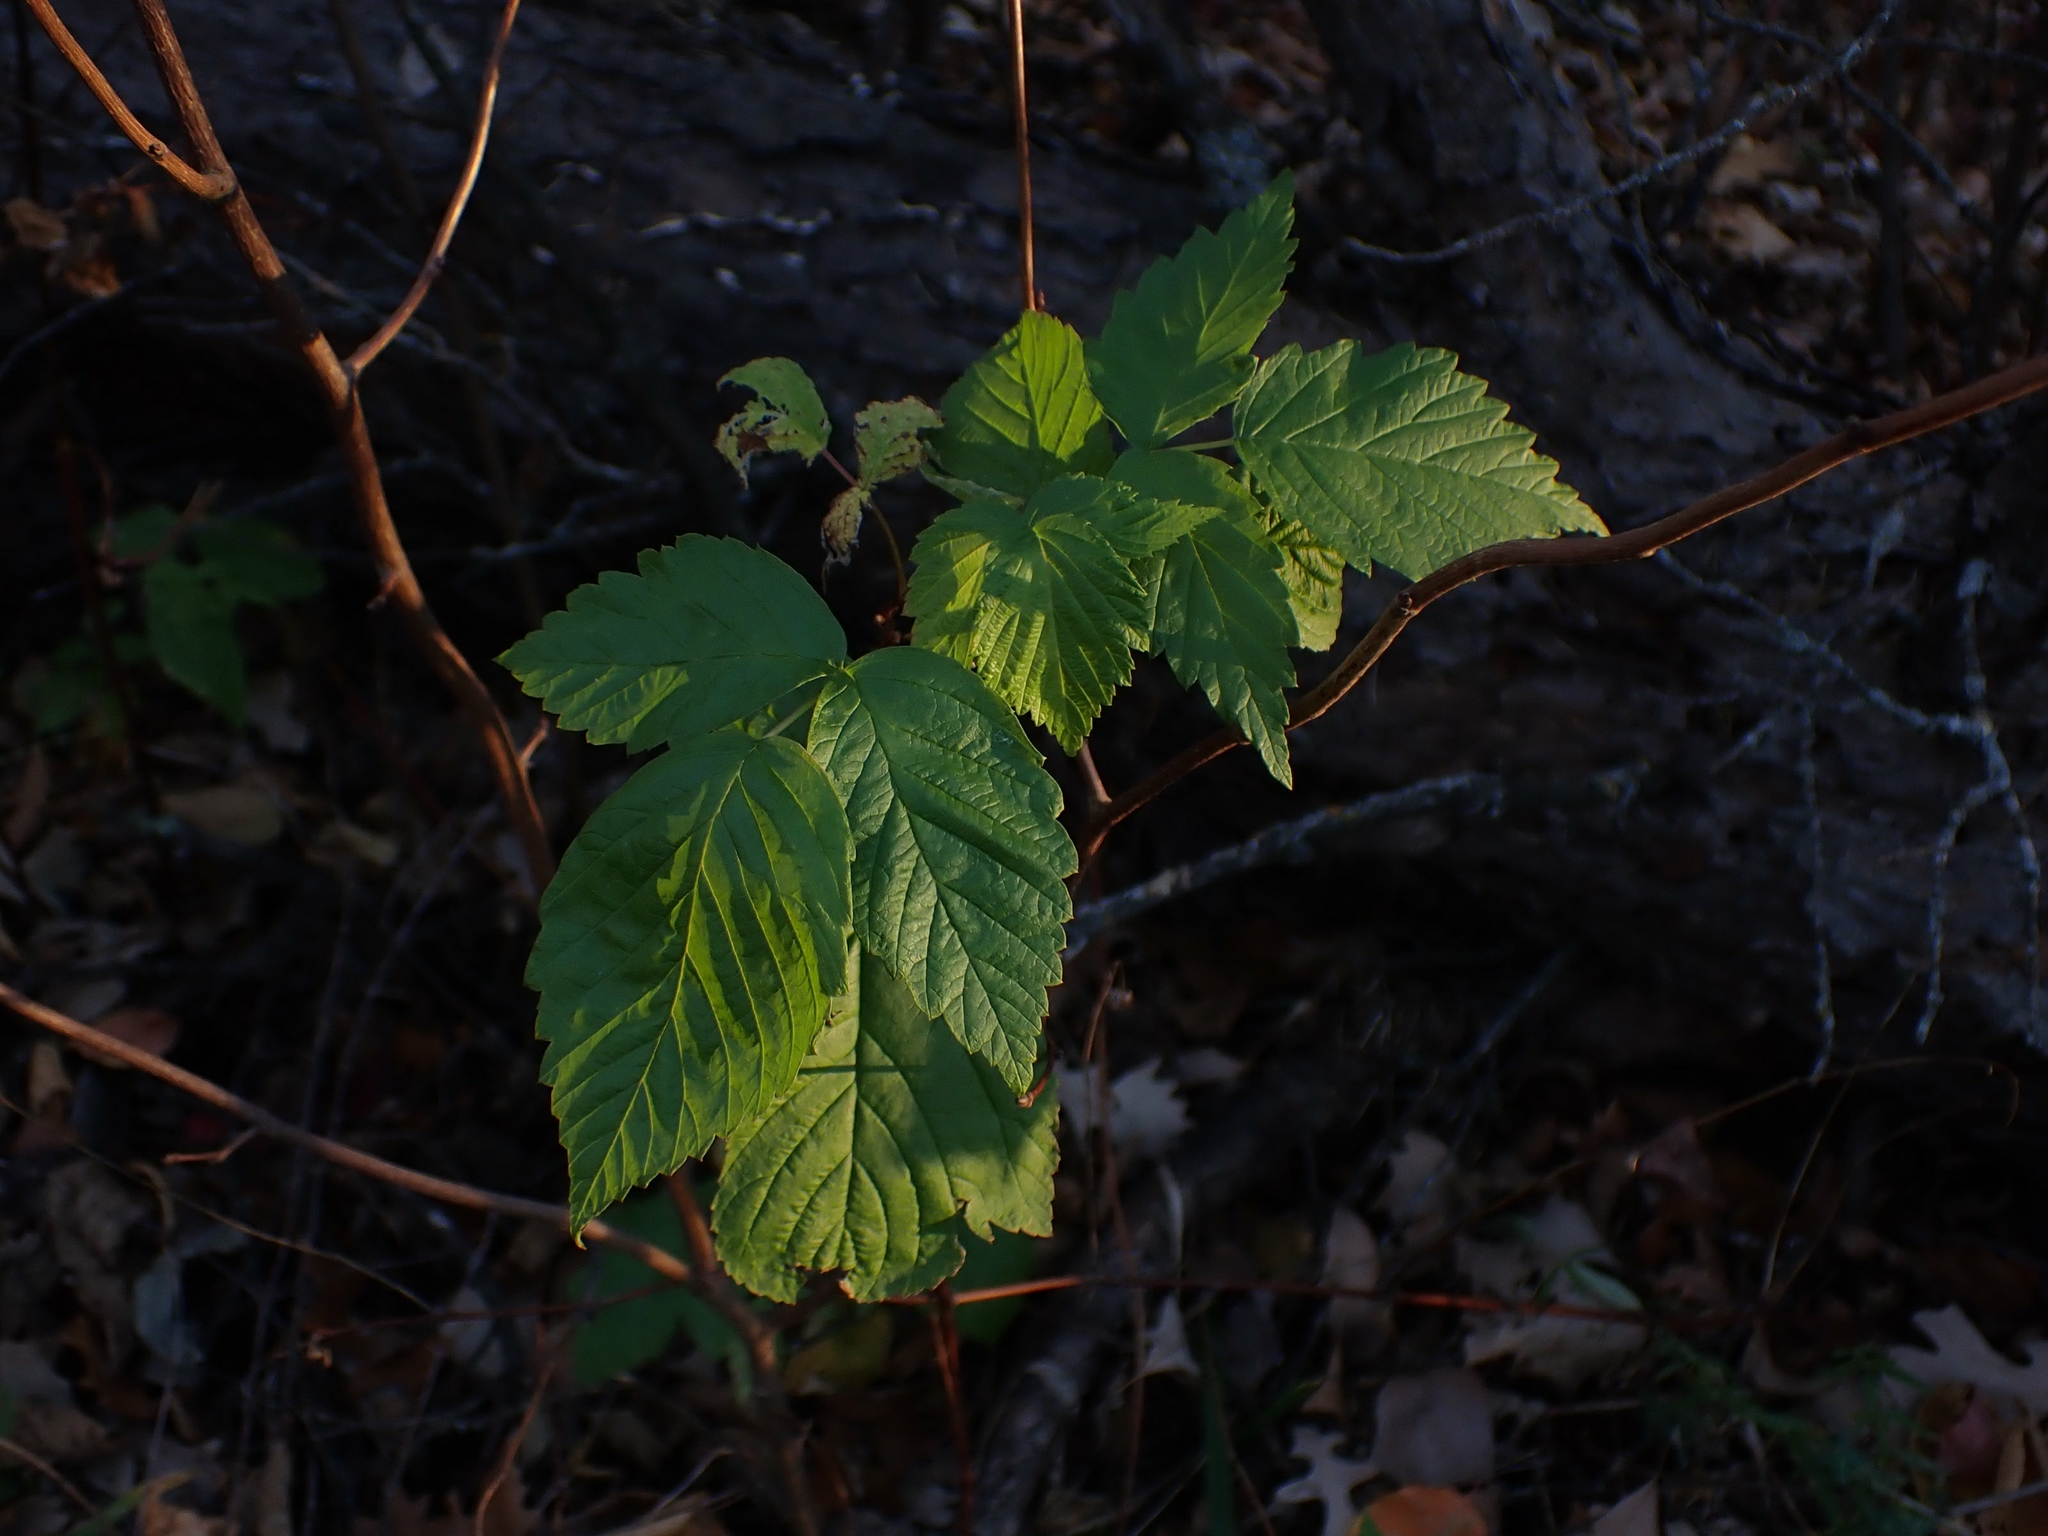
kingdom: Plantae
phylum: Tracheophyta
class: Magnoliopsida
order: Rosales
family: Rosaceae
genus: Rubus
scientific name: Rubus idaeus
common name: Raspberry
